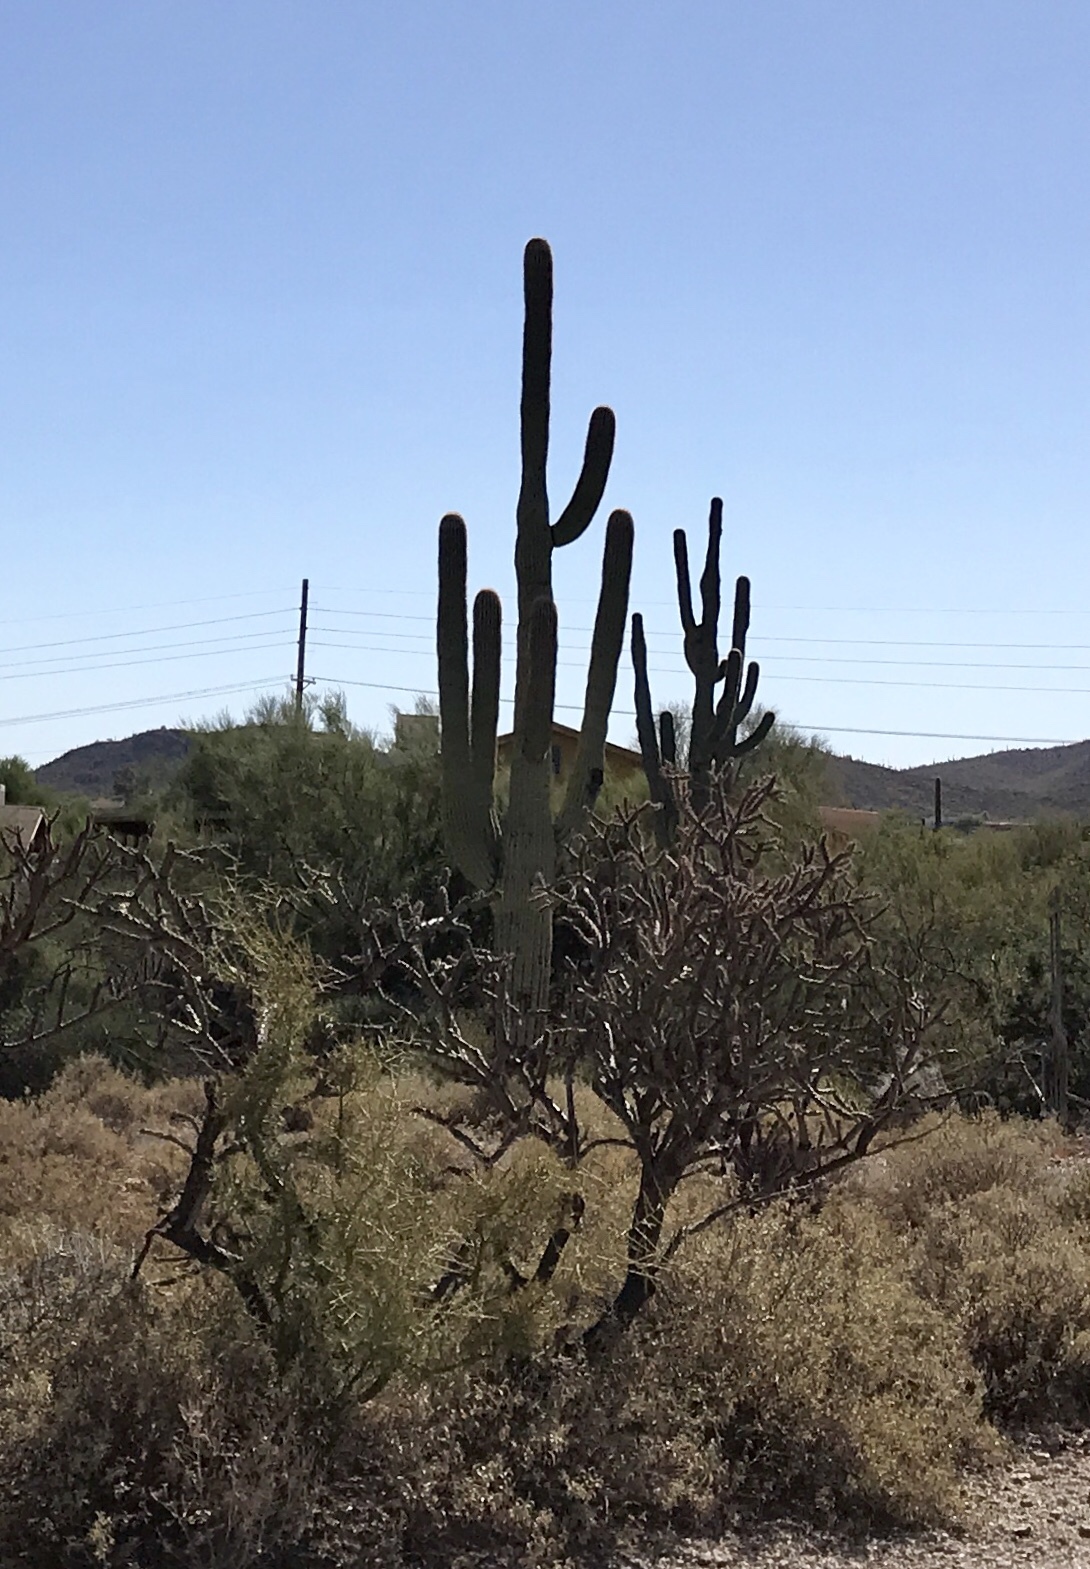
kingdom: Plantae
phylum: Tracheophyta
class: Magnoliopsida
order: Caryophyllales
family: Cactaceae
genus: Carnegiea
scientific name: Carnegiea gigantea
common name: Saguaro
